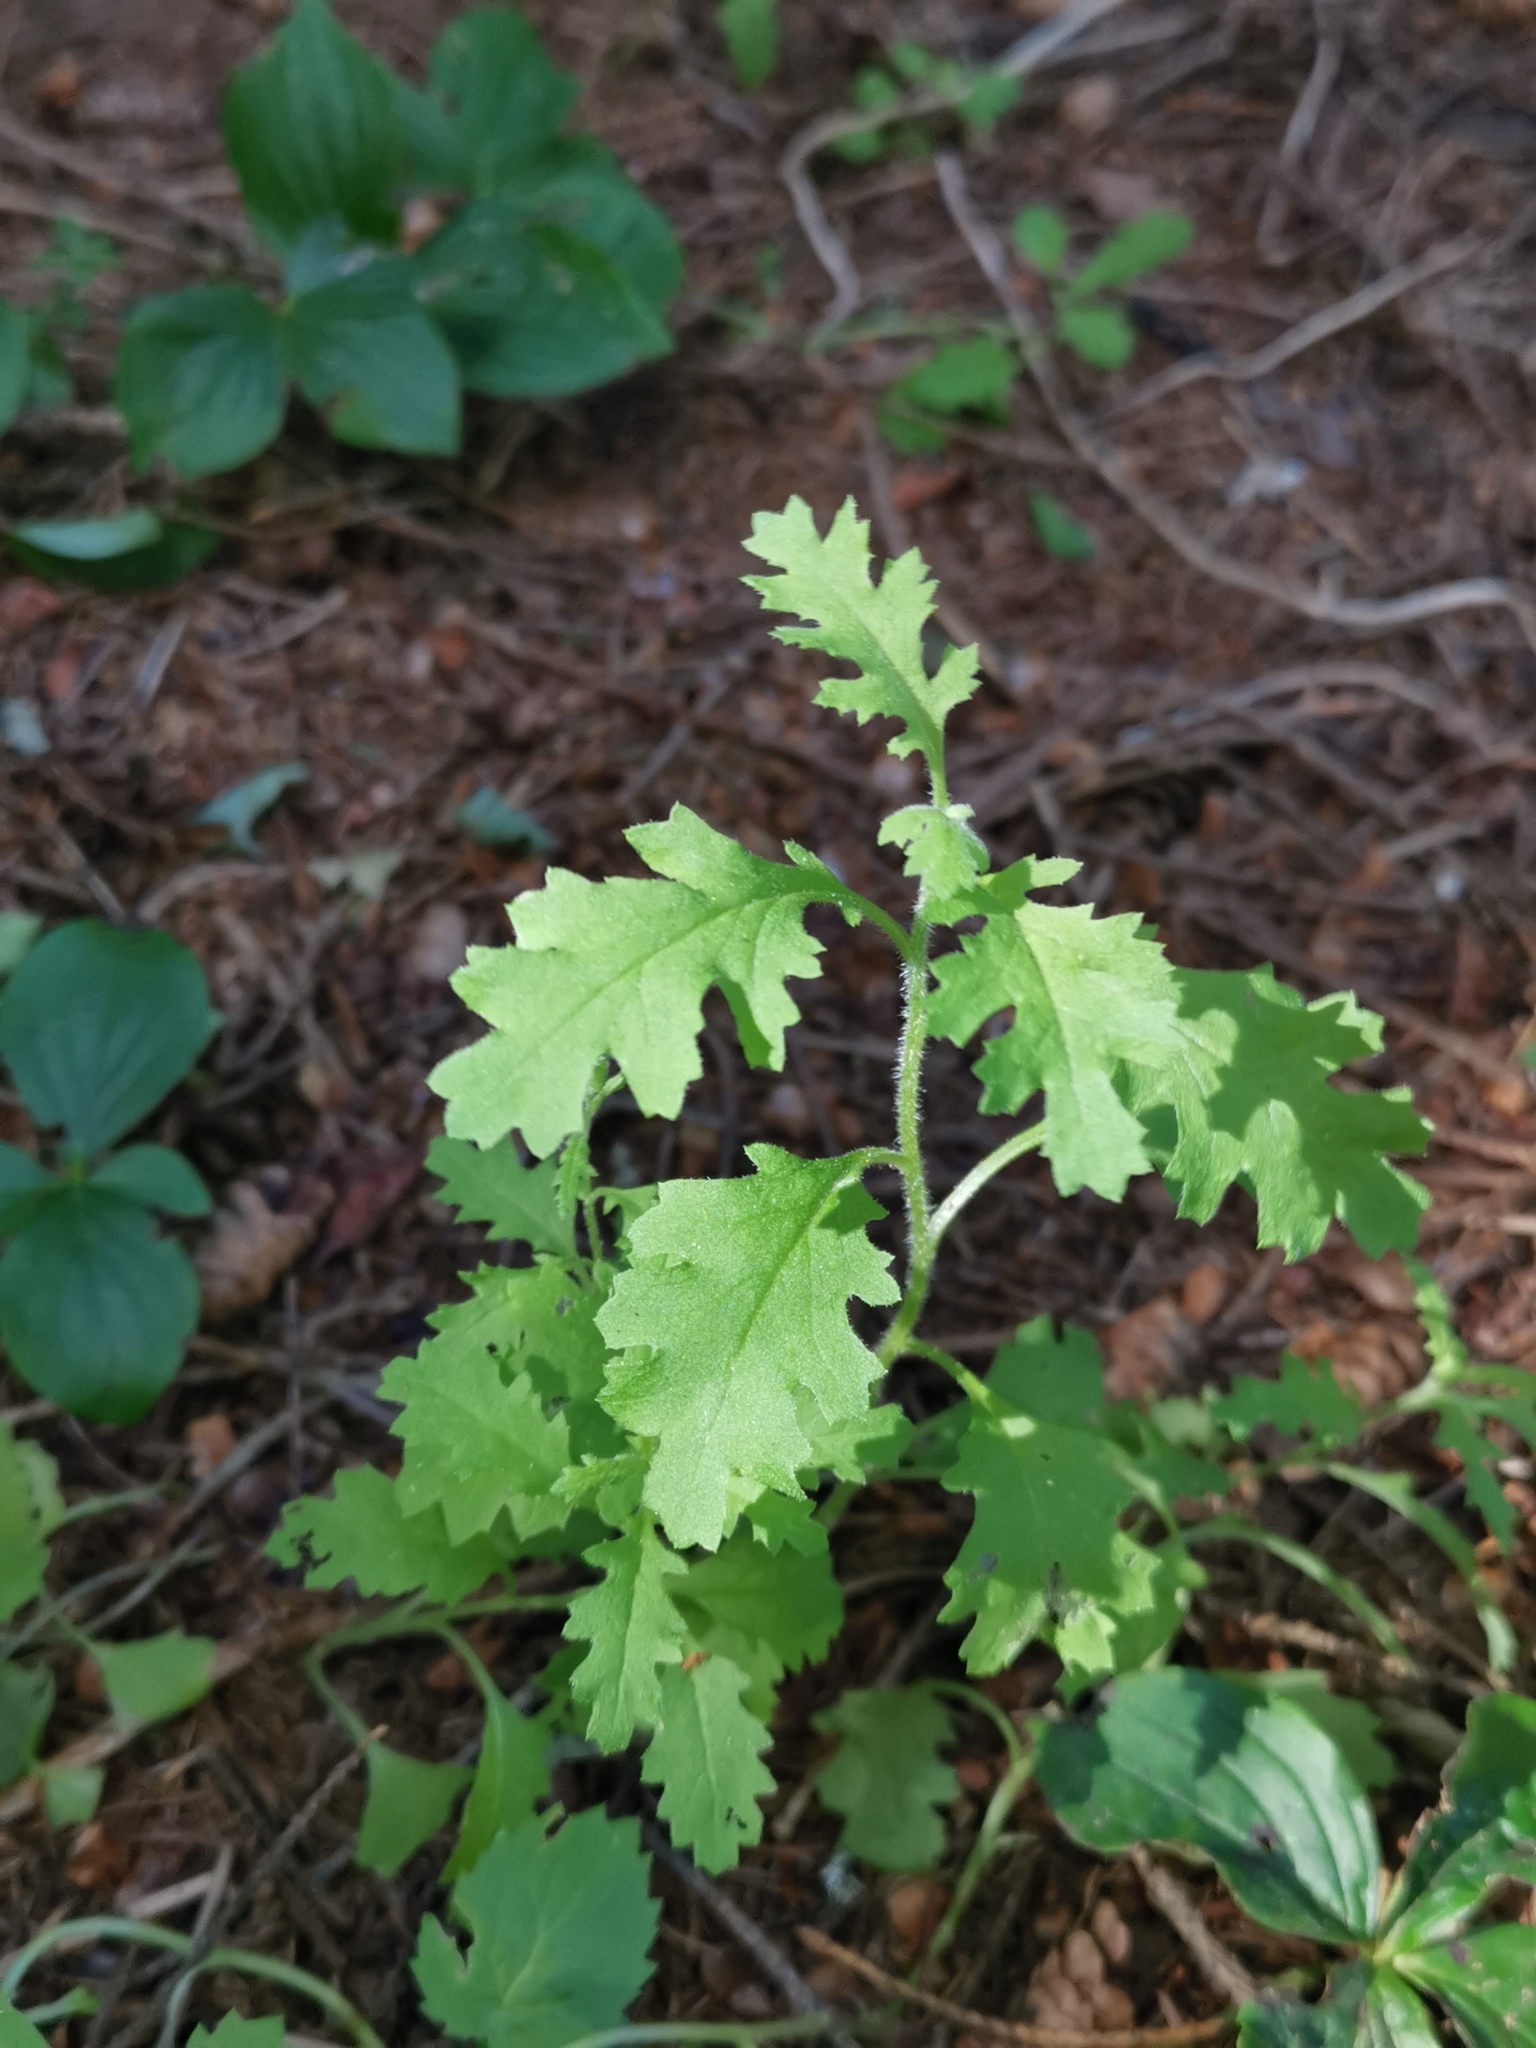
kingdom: Plantae
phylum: Tracheophyta
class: Magnoliopsida
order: Asterales
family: Asteraceae
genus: Senecio
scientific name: Senecio sylvaticus
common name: Woodland ragwort
